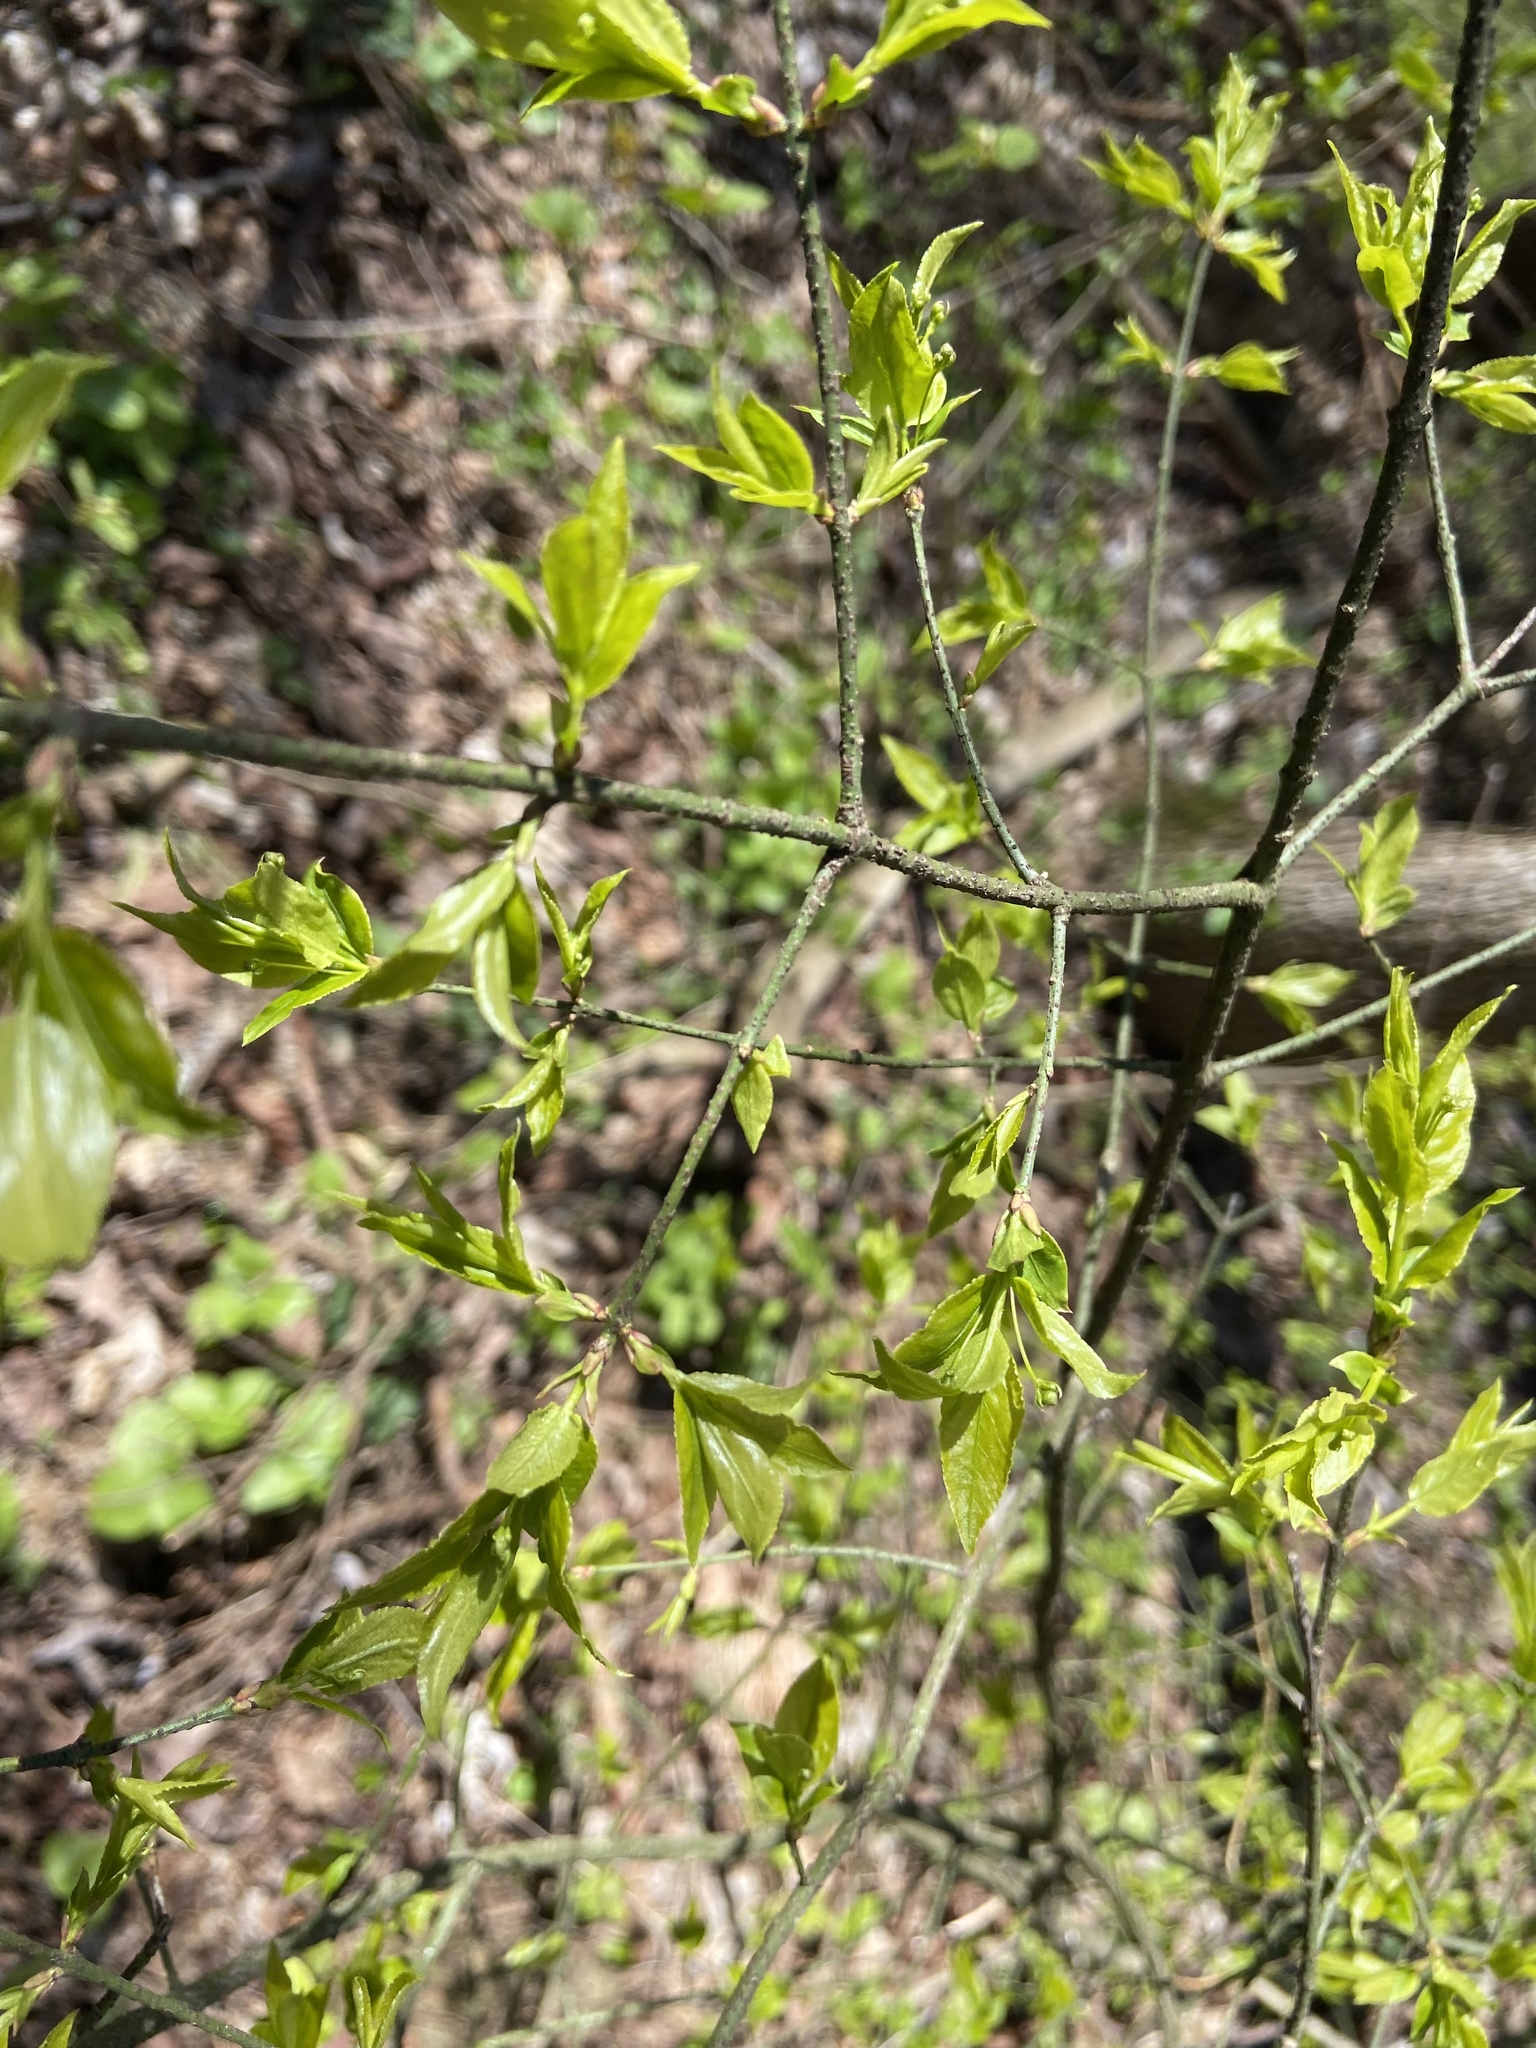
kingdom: Plantae
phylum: Tracheophyta
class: Magnoliopsida
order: Celastrales
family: Celastraceae
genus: Euonymus
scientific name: Euonymus verrucosus
